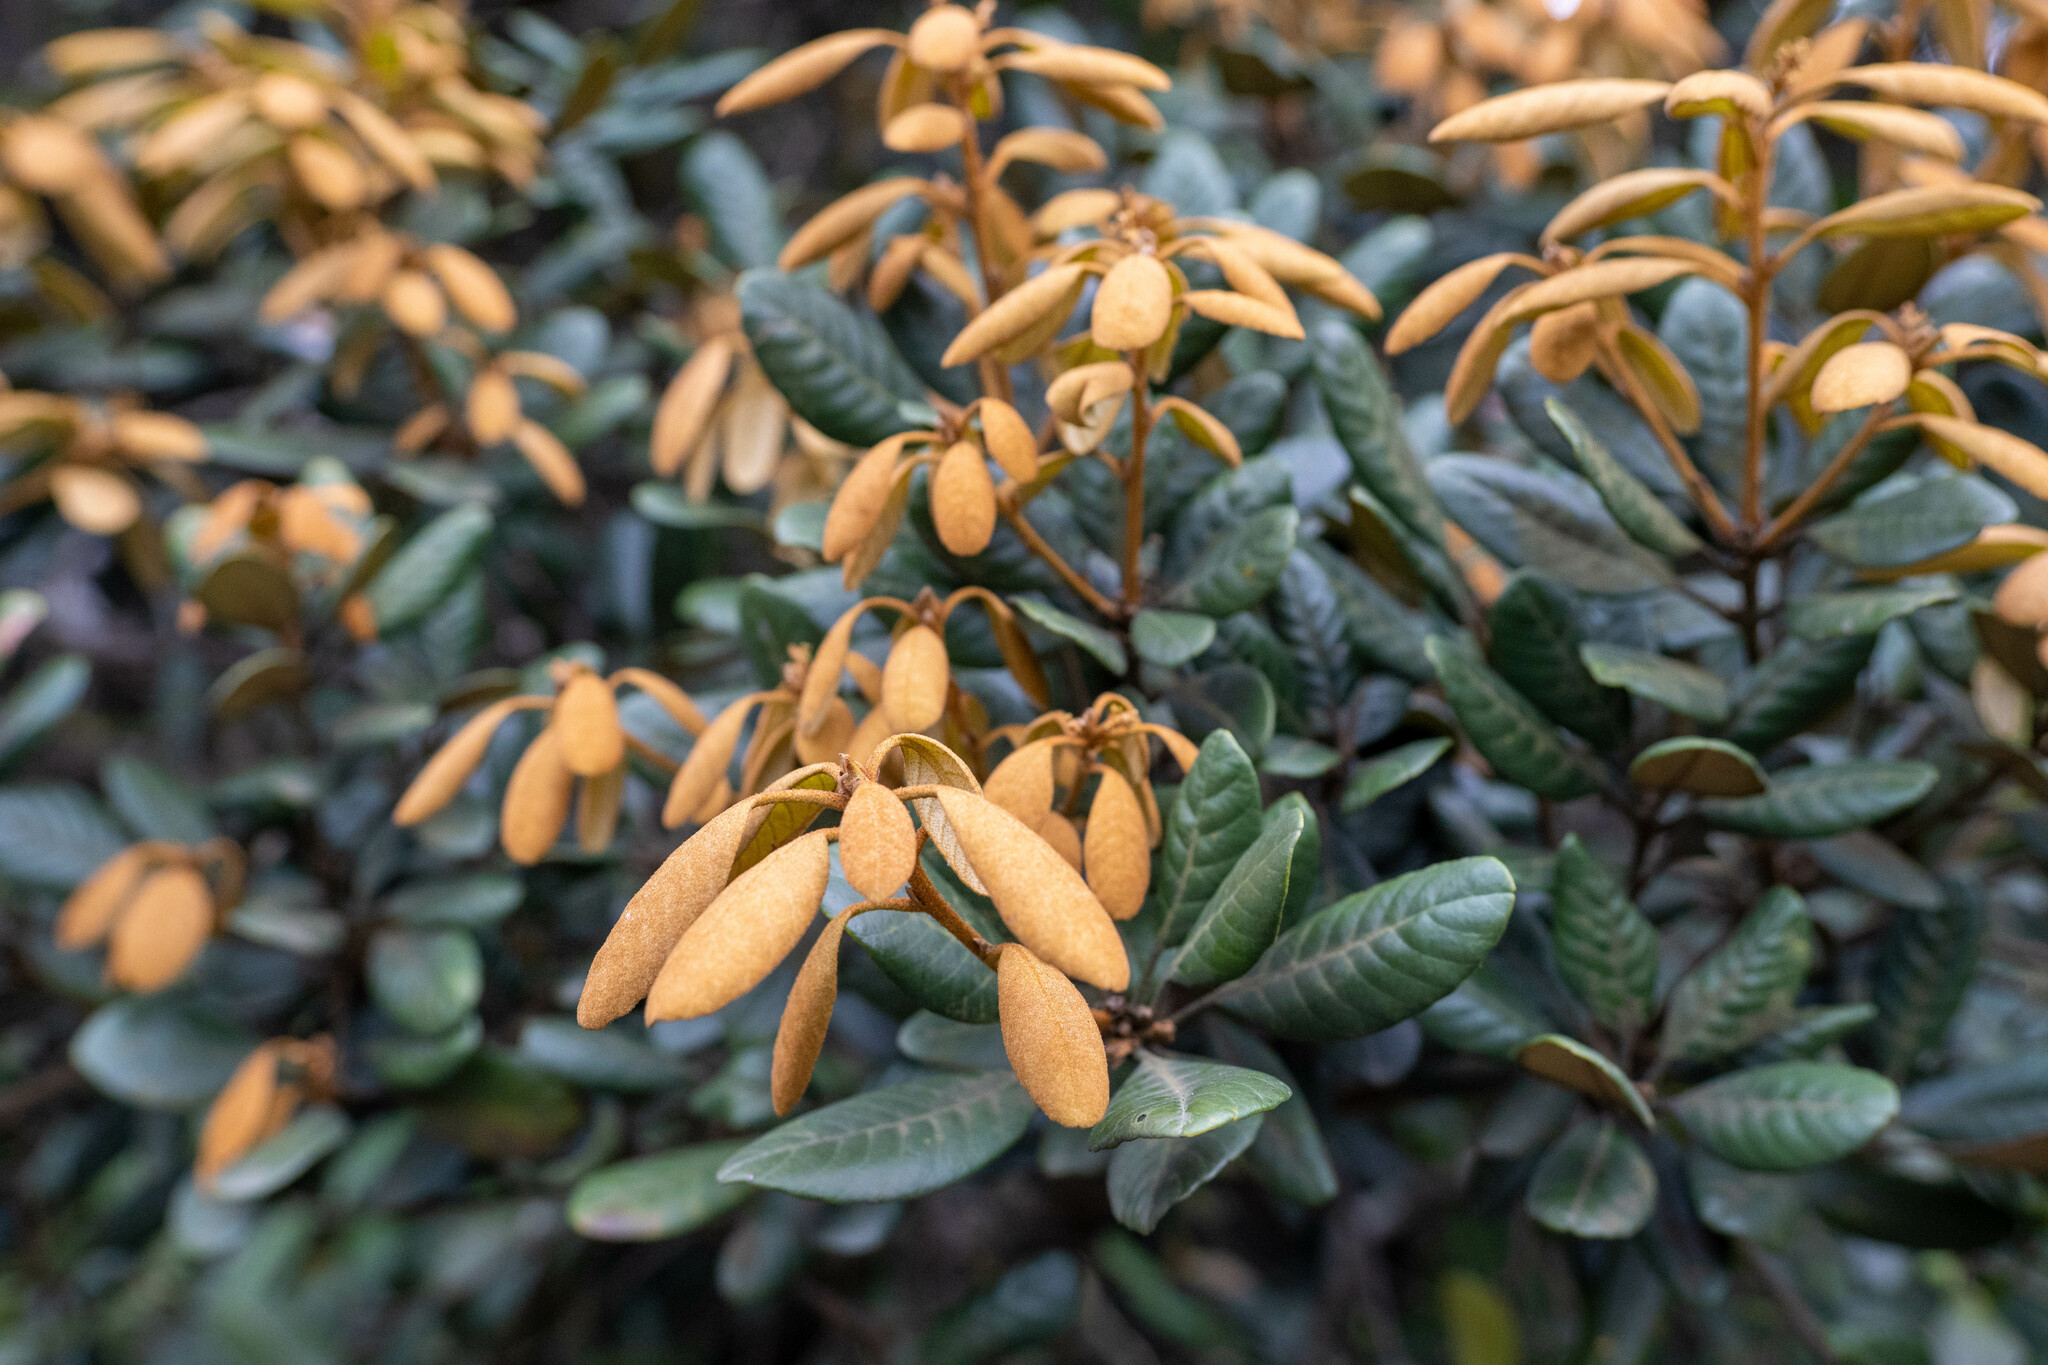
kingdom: Plantae
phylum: Tracheophyta
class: Magnoliopsida
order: Fagales
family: Fagaceae
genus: Quercus
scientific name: Quercus championii
